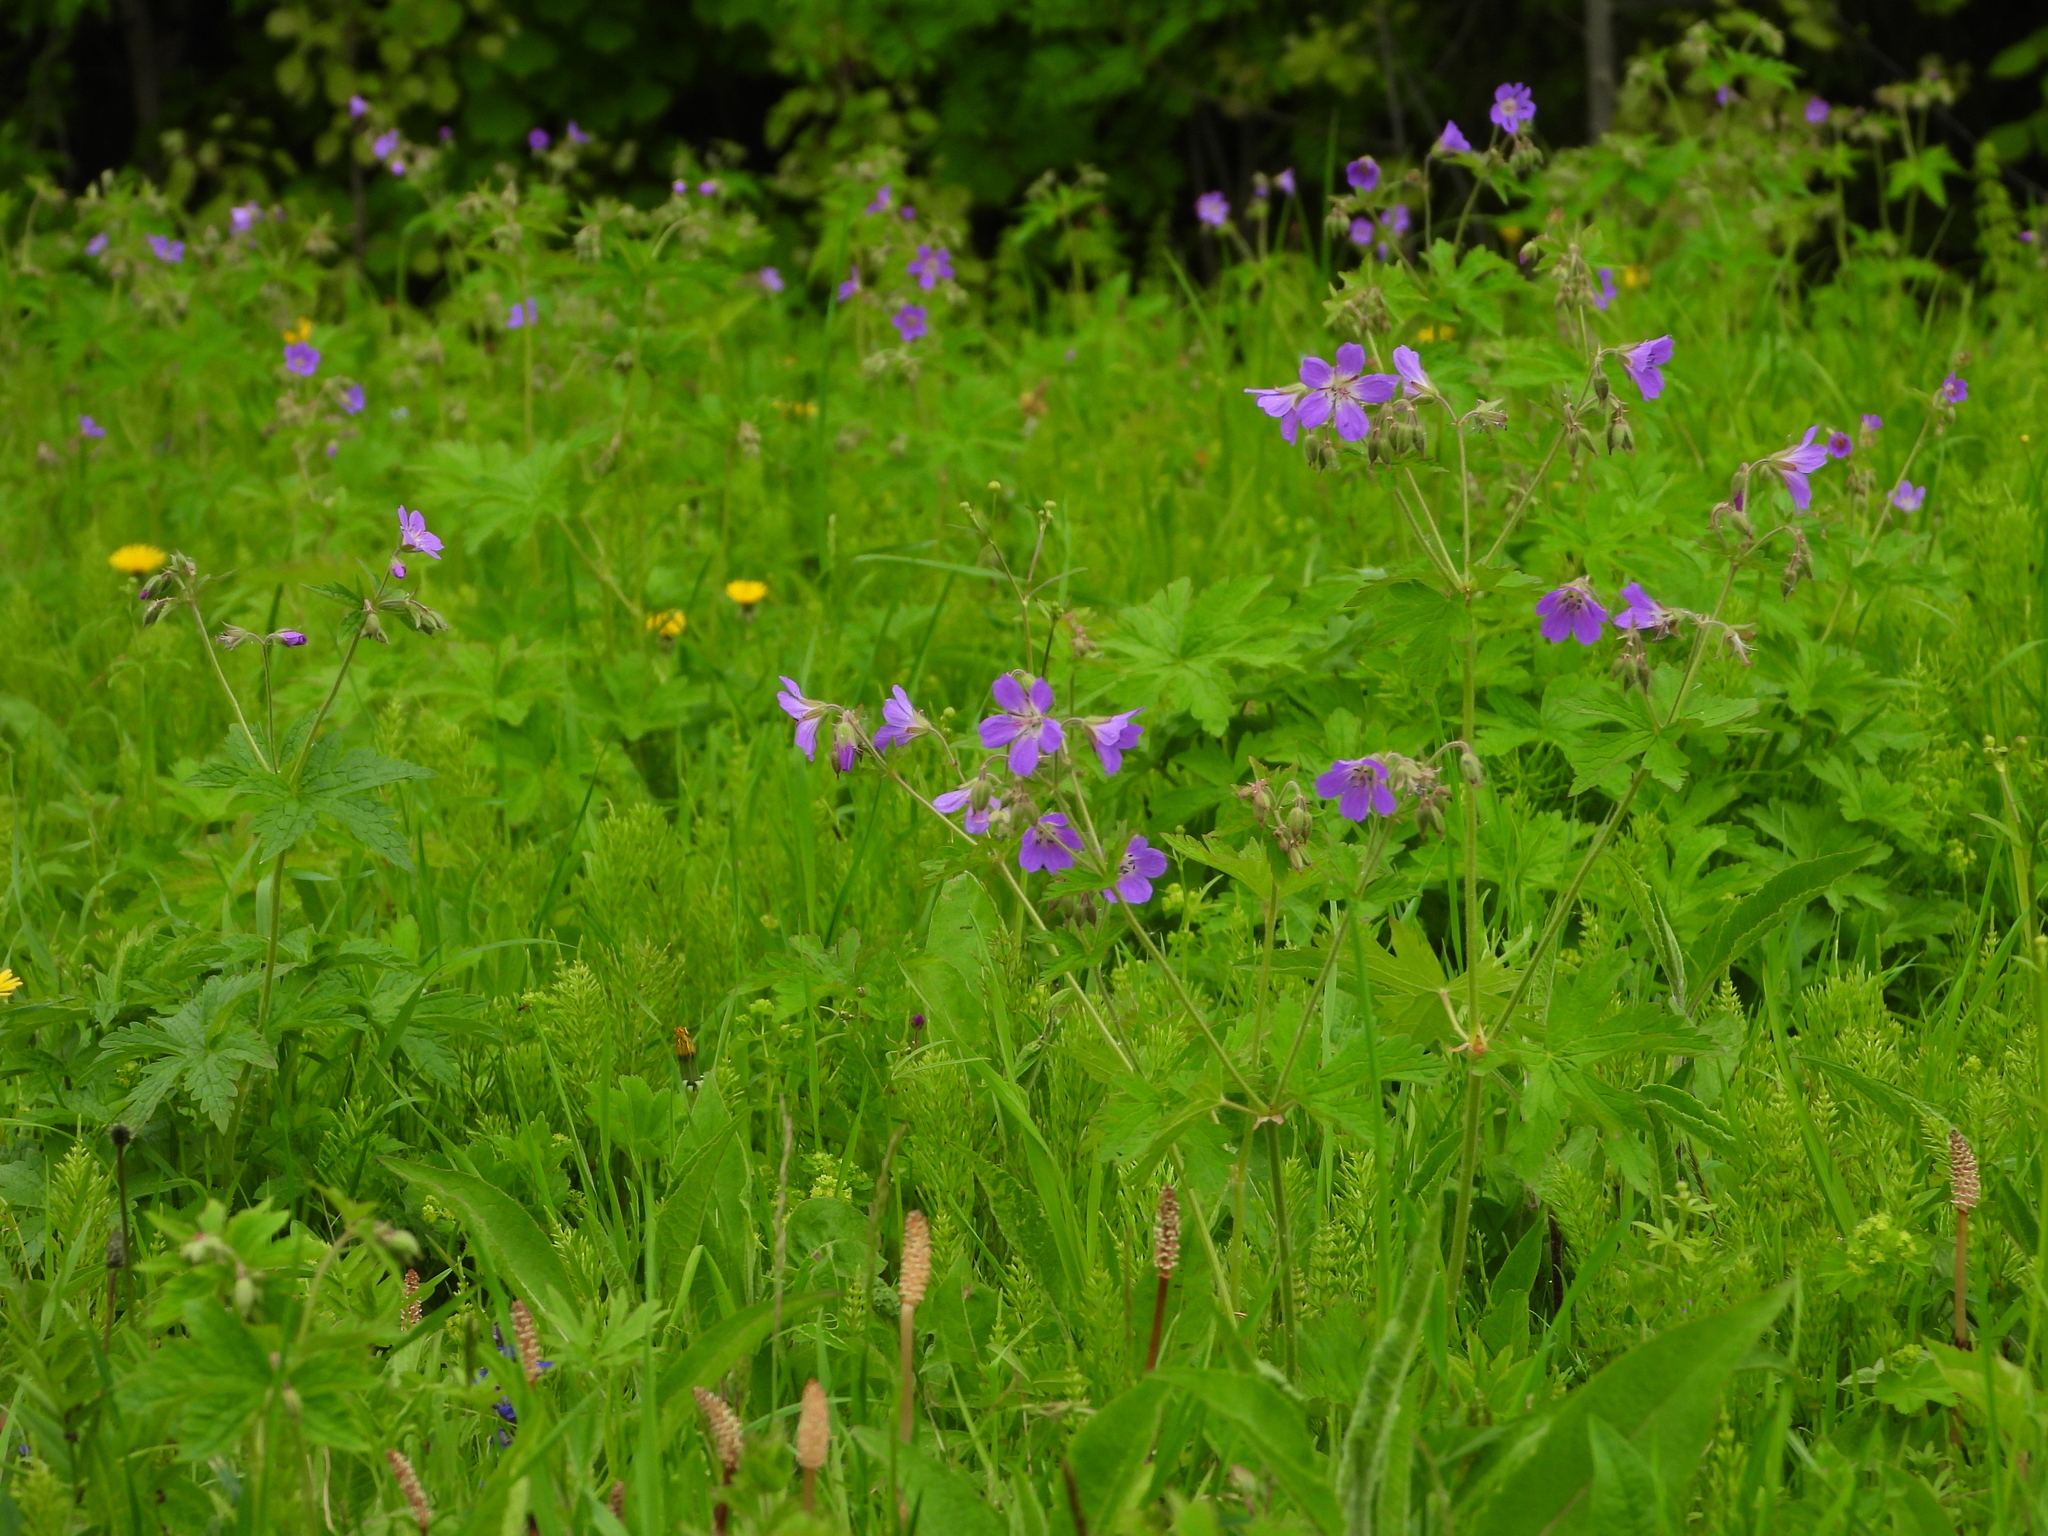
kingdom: Plantae
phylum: Tracheophyta
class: Magnoliopsida
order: Geraniales
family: Geraniaceae
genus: Geranium
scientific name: Geranium sylvaticum
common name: Wood crane's-bill
